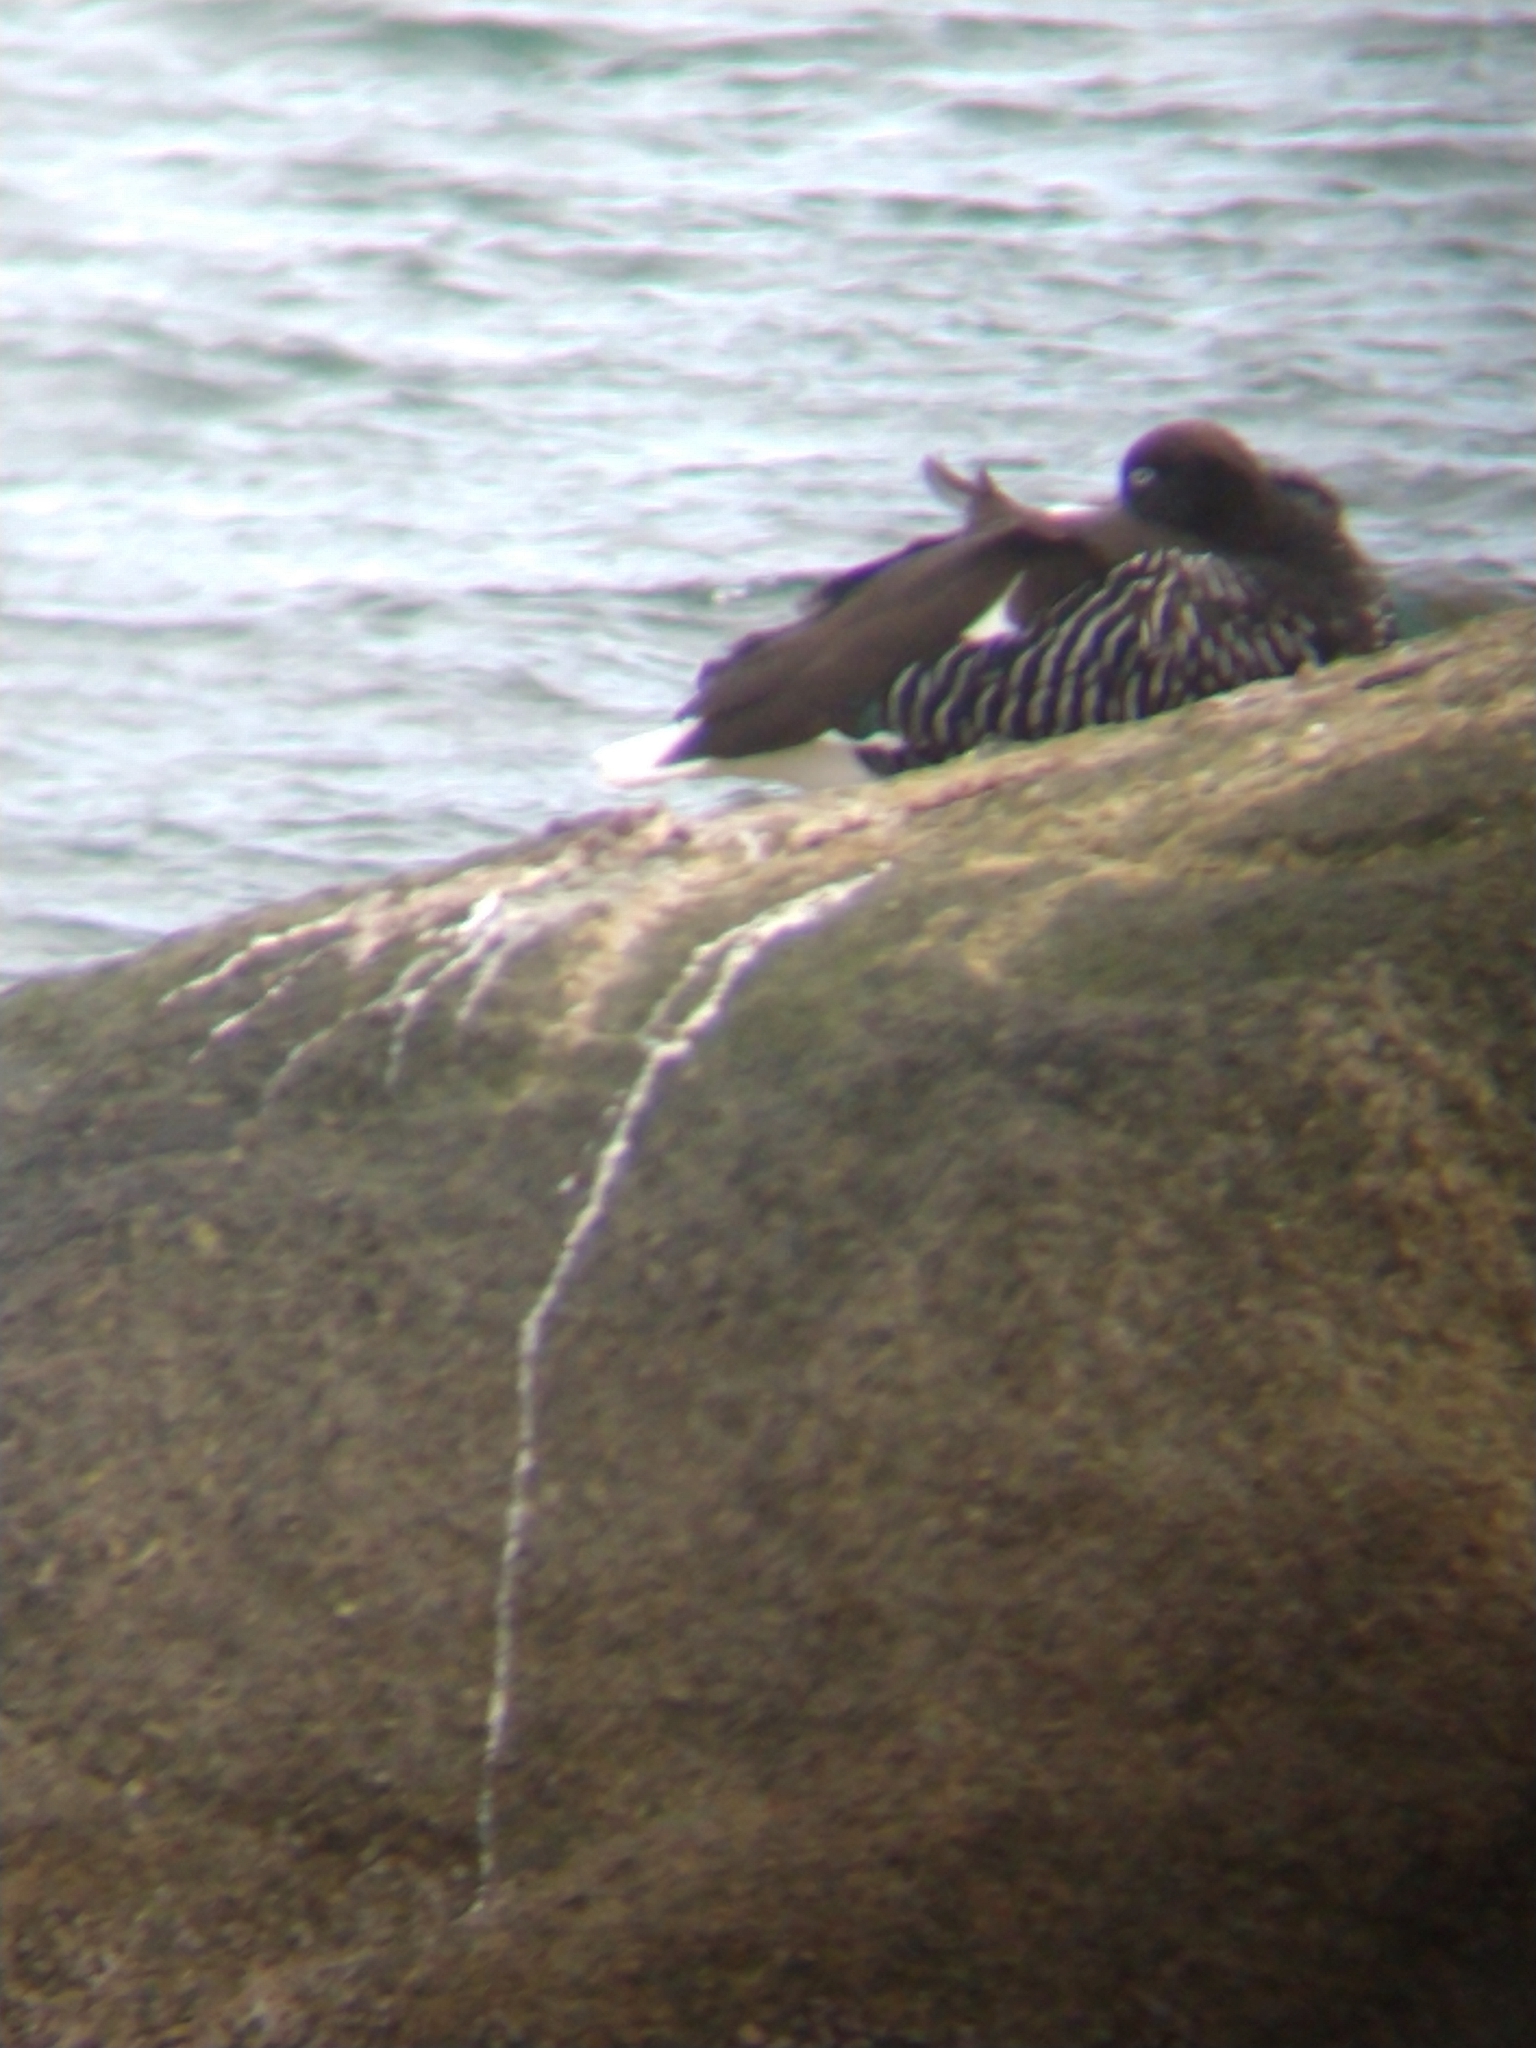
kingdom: Animalia
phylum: Chordata
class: Aves
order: Anseriformes
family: Anatidae
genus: Chloephaga
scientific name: Chloephaga hybrida
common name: Kelp goose
